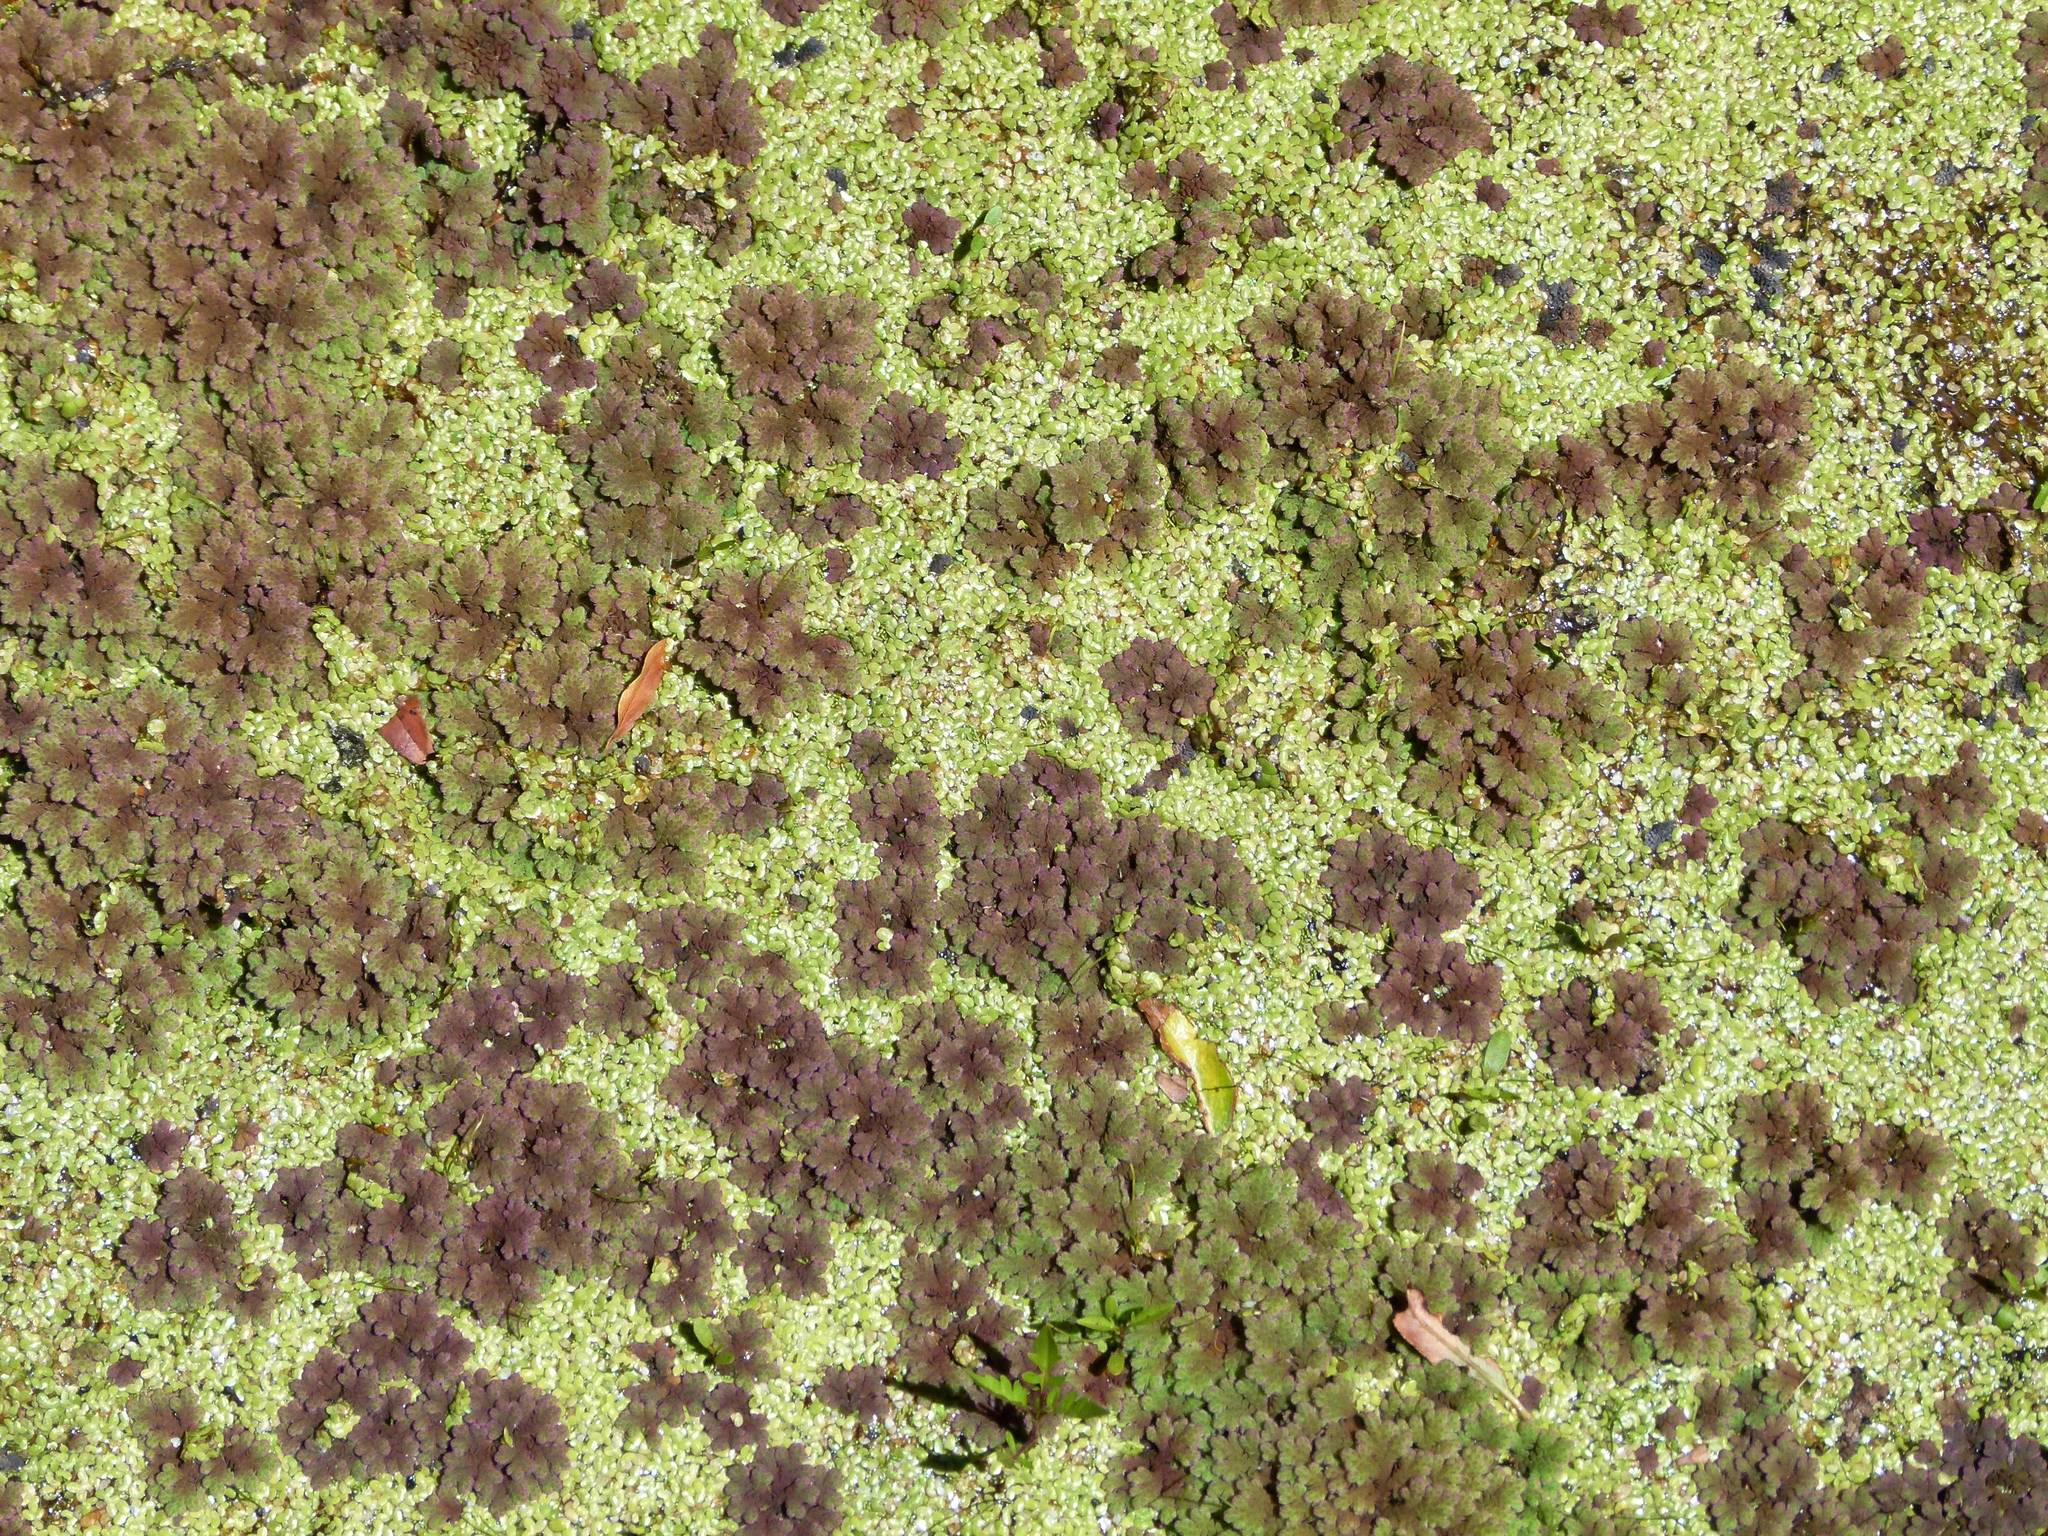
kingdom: Plantae
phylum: Tracheophyta
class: Liliopsida
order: Alismatales
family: Araceae
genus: Lemna
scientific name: Lemna disperma
